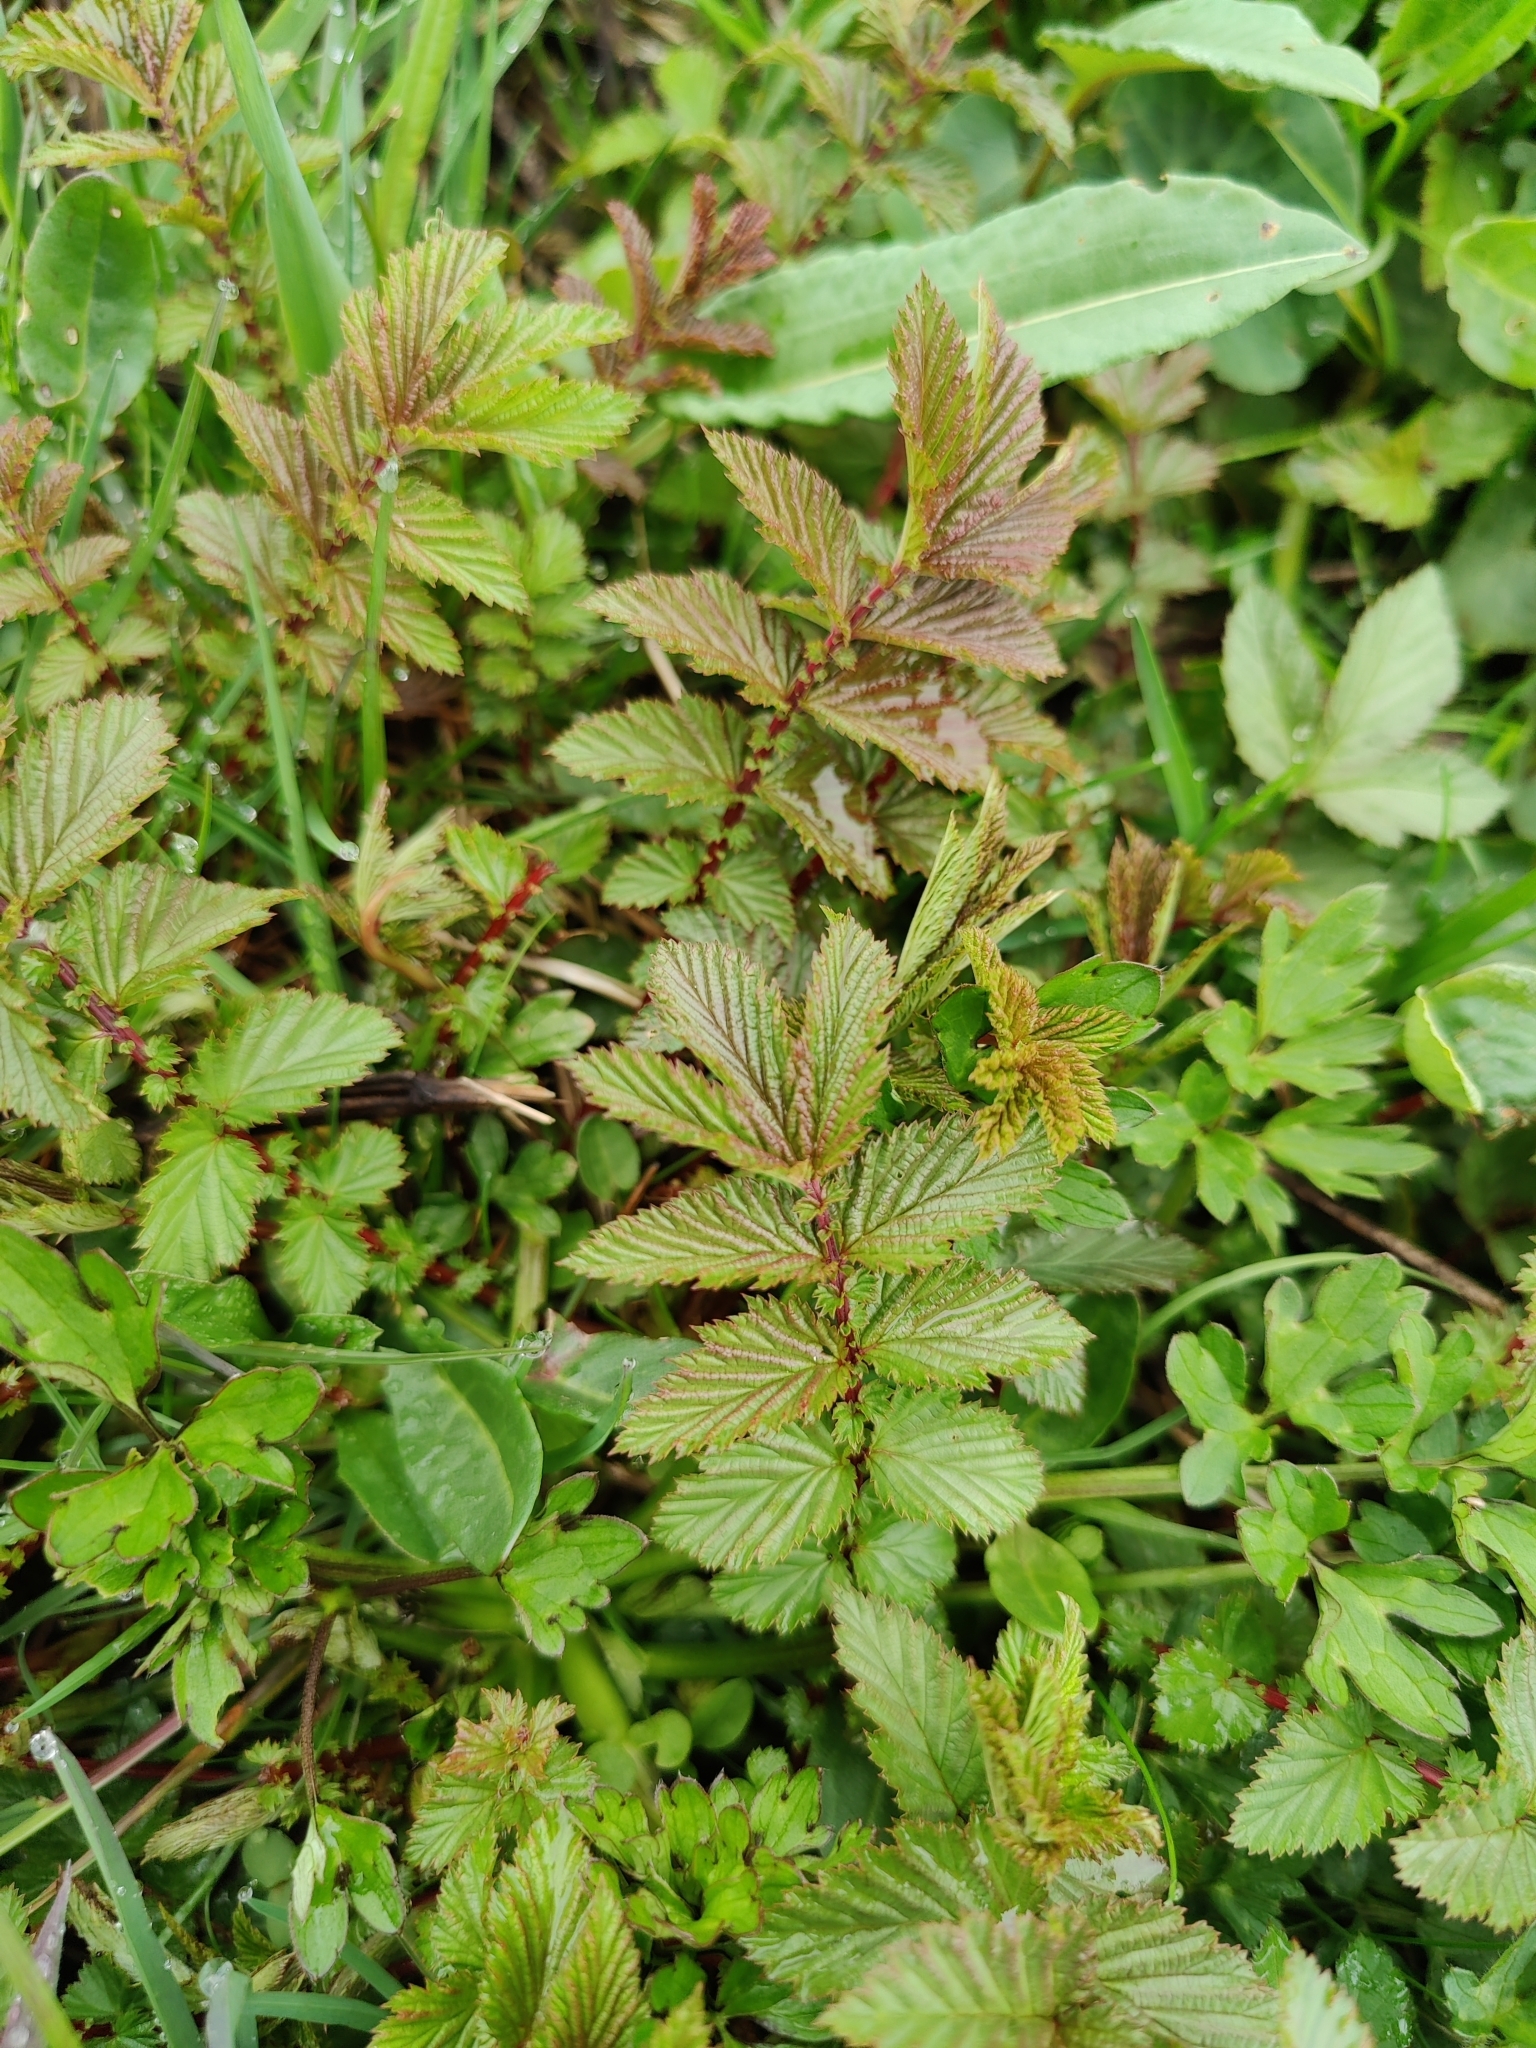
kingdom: Plantae
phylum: Tracheophyta
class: Magnoliopsida
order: Rosales
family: Rosaceae
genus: Filipendula
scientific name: Filipendula ulmaria
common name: Meadowsweet
